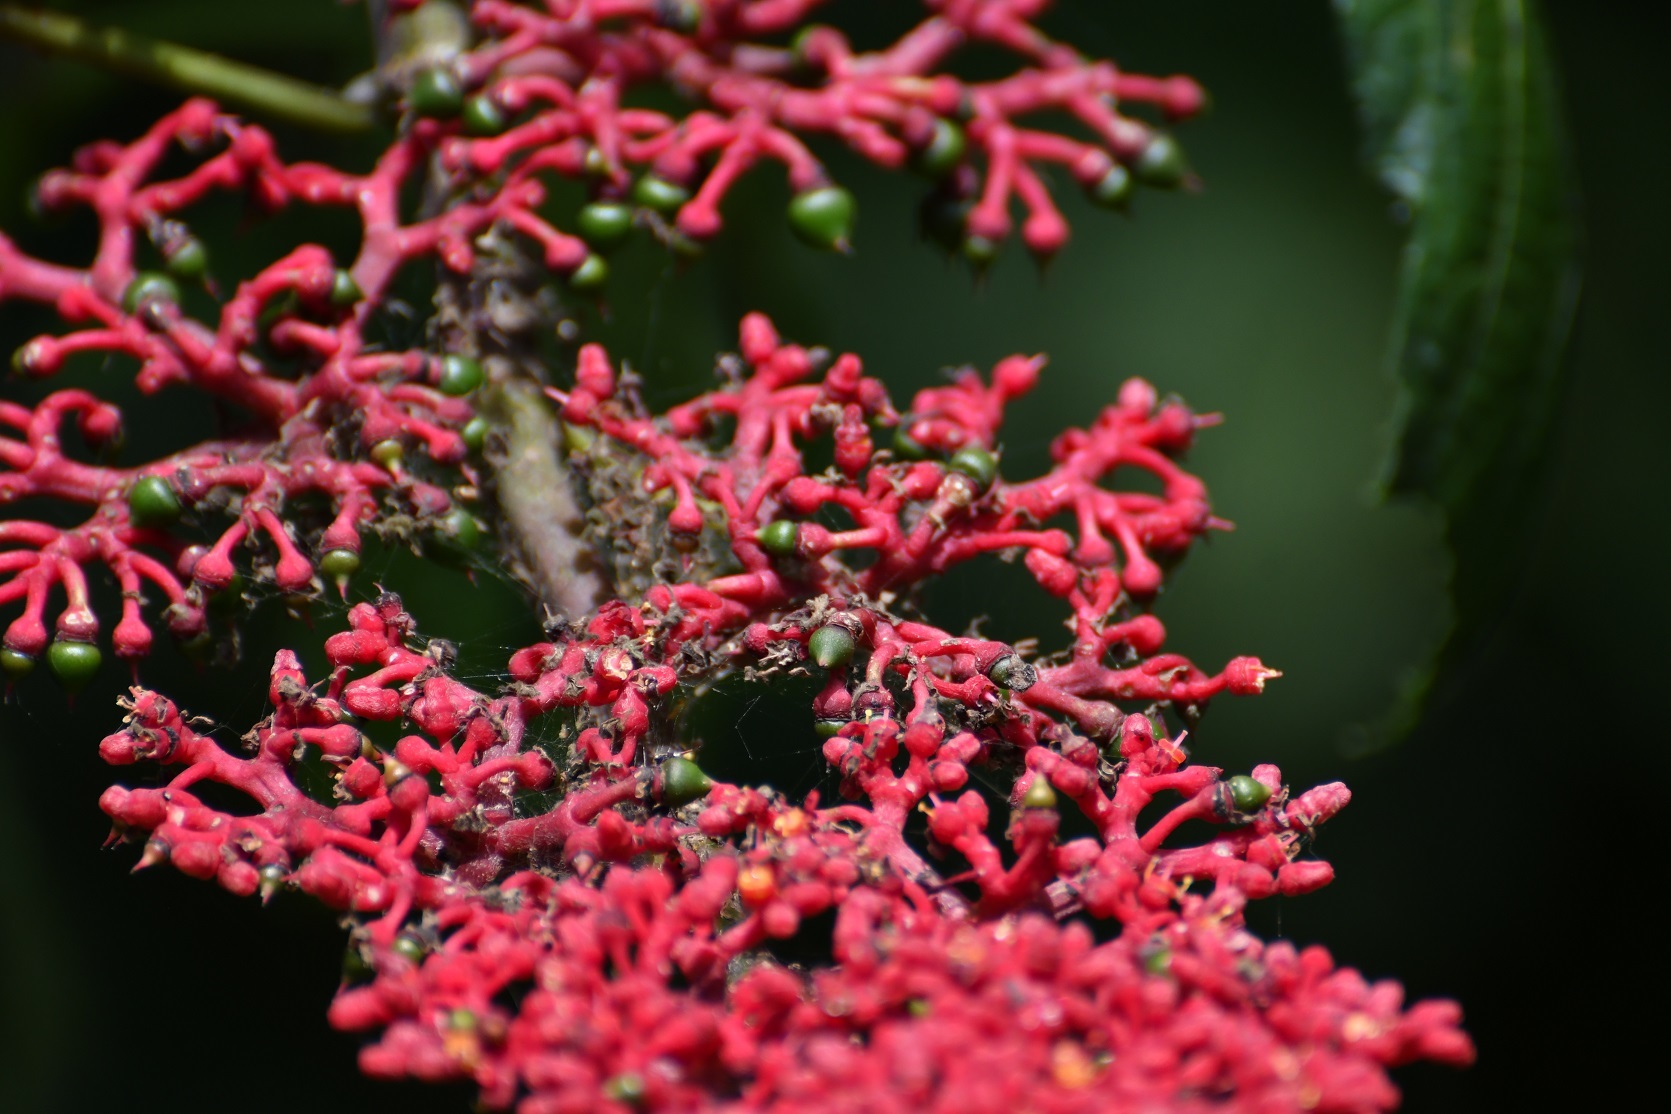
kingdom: Plantae
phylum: Tracheophyta
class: Magnoliopsida
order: Vitales
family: Vitaceae
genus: Cissus
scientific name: Cissus biformifolia
